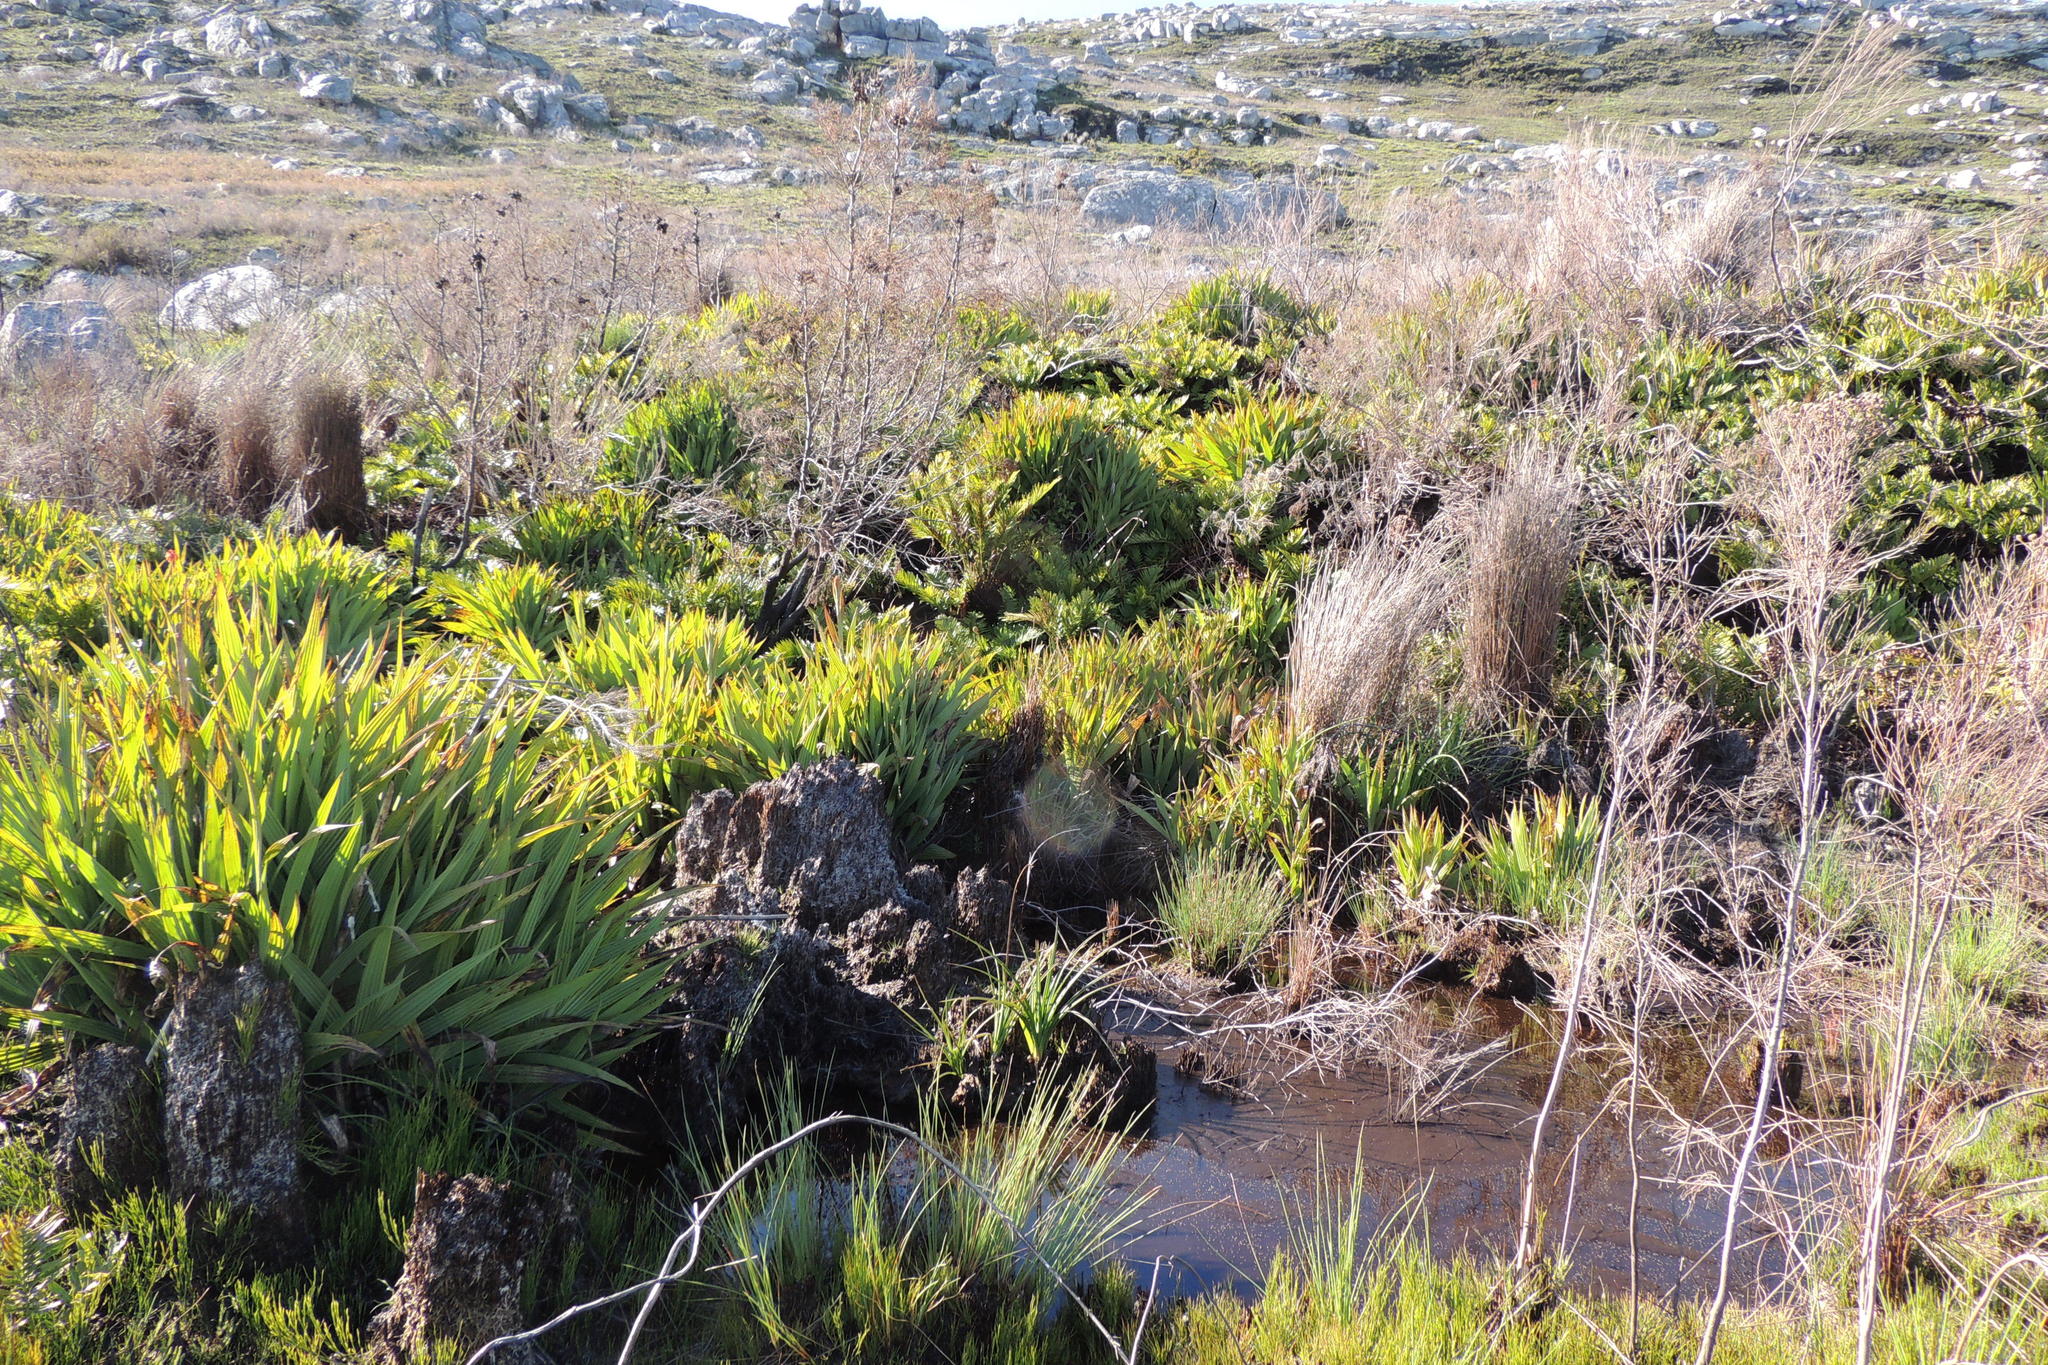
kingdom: Plantae
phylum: Tracheophyta
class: Liliopsida
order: Commelinales
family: Haemodoraceae
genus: Wachendorfia
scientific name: Wachendorfia thyrsiflora
